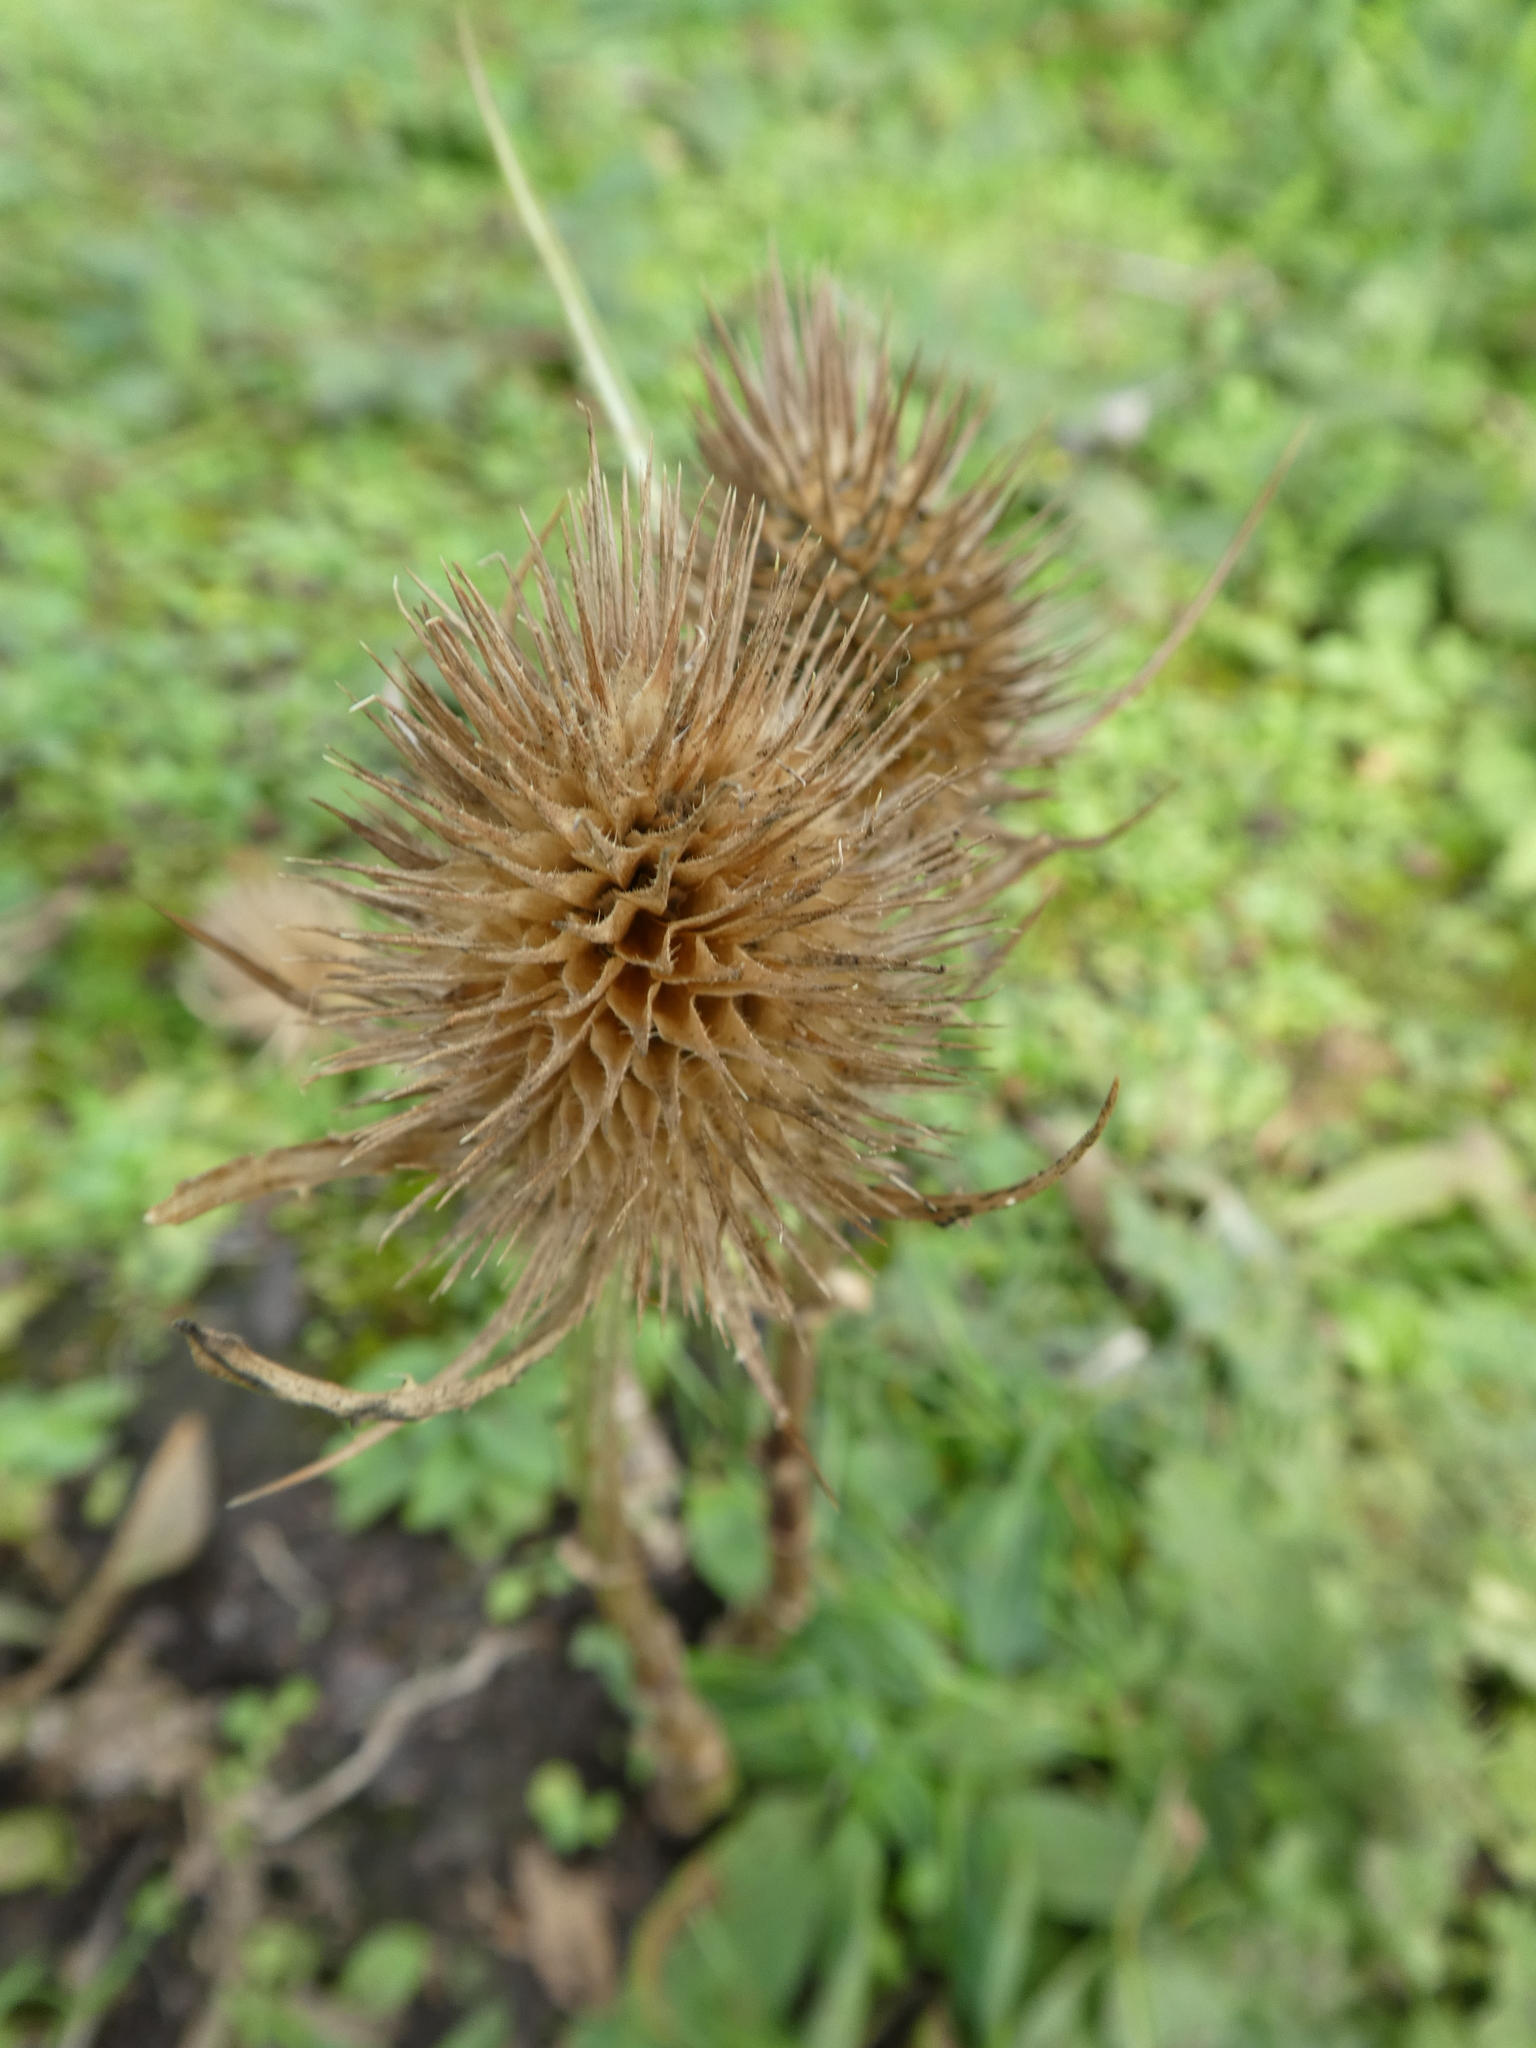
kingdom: Plantae
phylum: Tracheophyta
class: Magnoliopsida
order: Dipsacales
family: Caprifoliaceae
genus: Dipsacus
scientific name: Dipsacus fullonum
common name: Teasel
